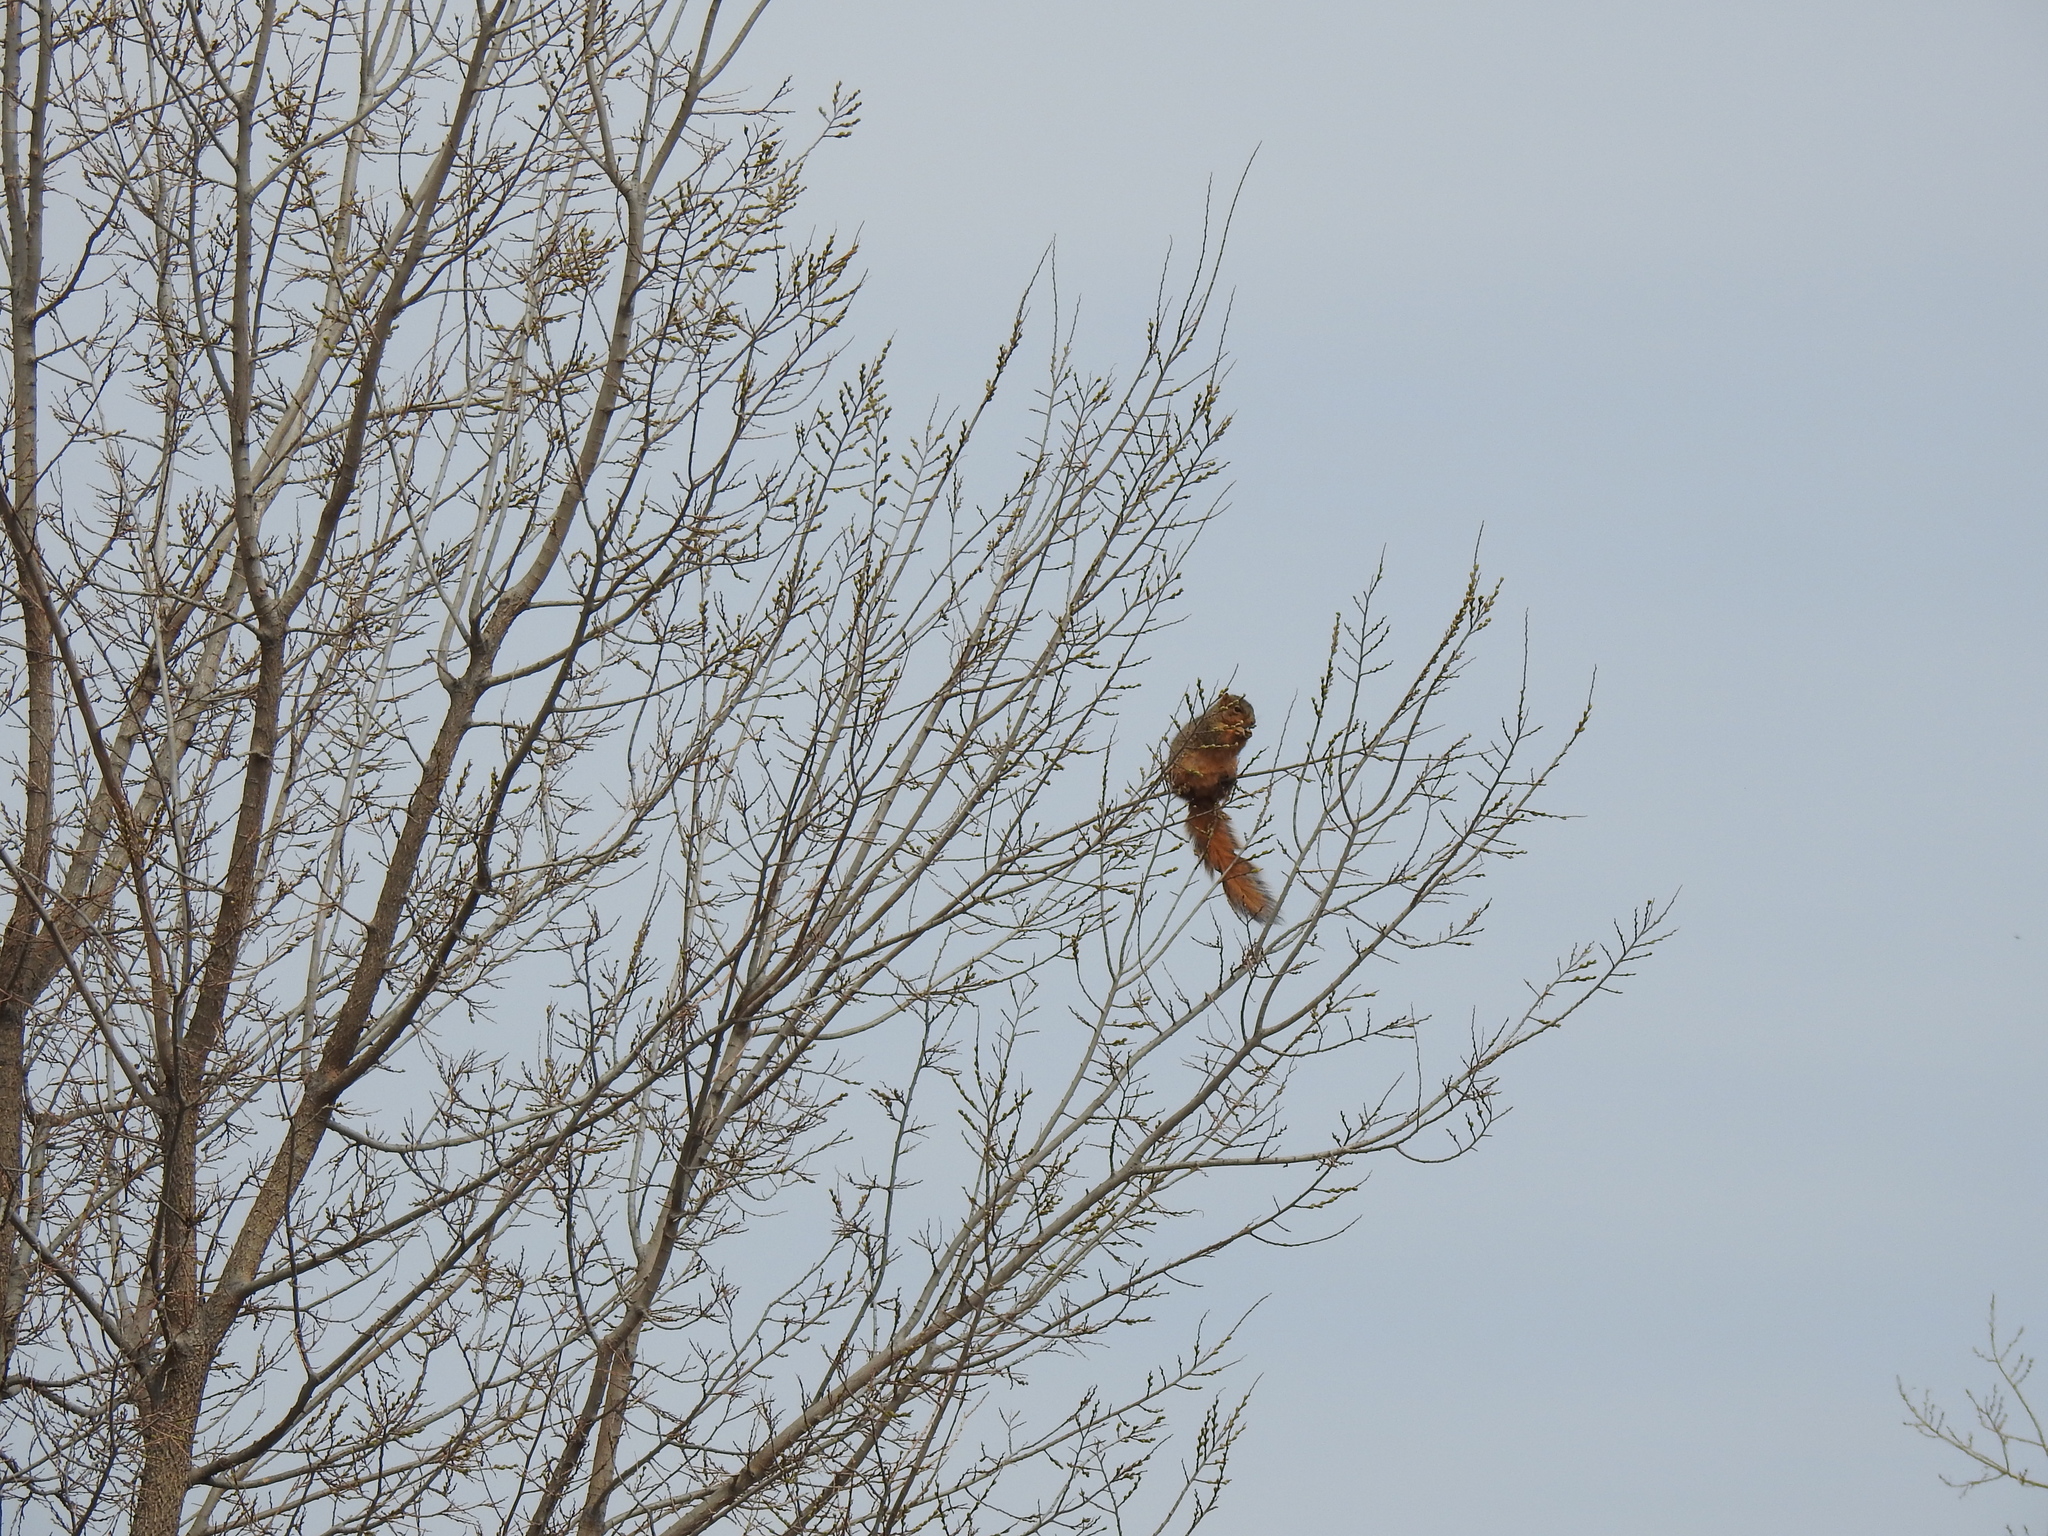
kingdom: Animalia
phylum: Chordata
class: Mammalia
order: Rodentia
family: Sciuridae
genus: Sciurus
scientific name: Sciurus niger
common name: Fox squirrel
